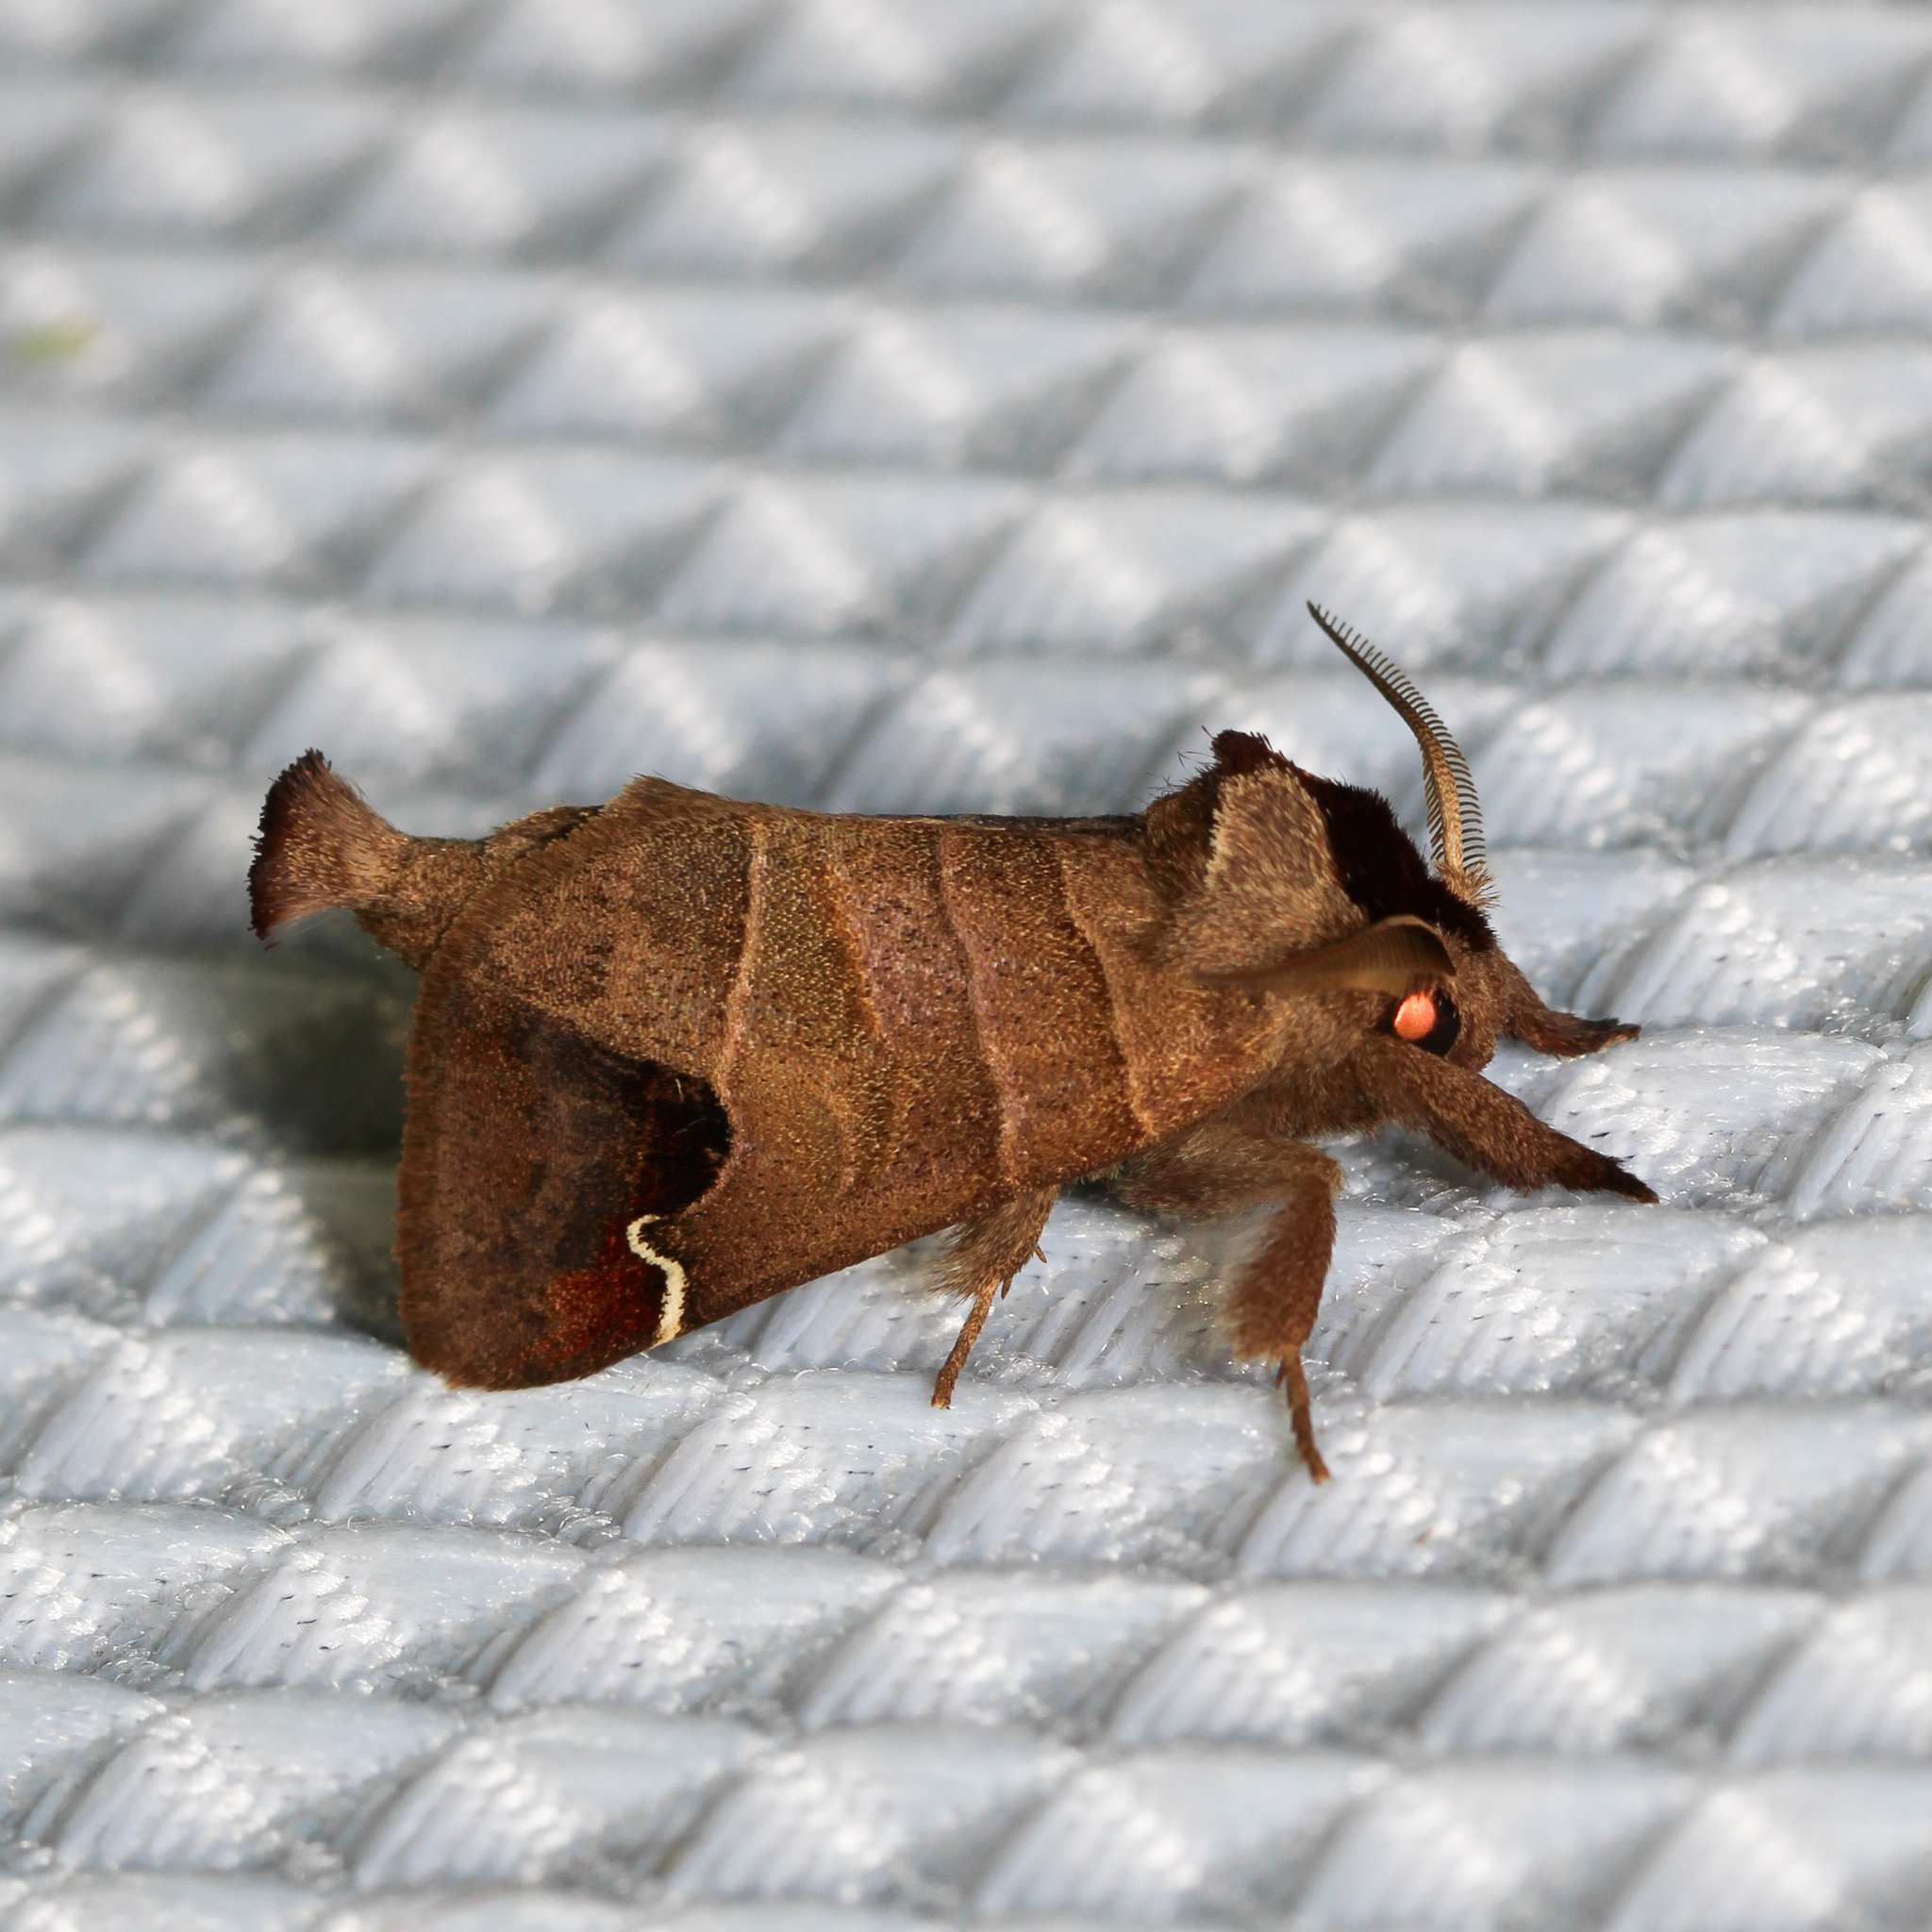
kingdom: Animalia
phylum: Arthropoda
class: Insecta
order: Lepidoptera
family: Notodontidae
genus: Clostera
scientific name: Clostera albosigma
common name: Sigmoid prominent
